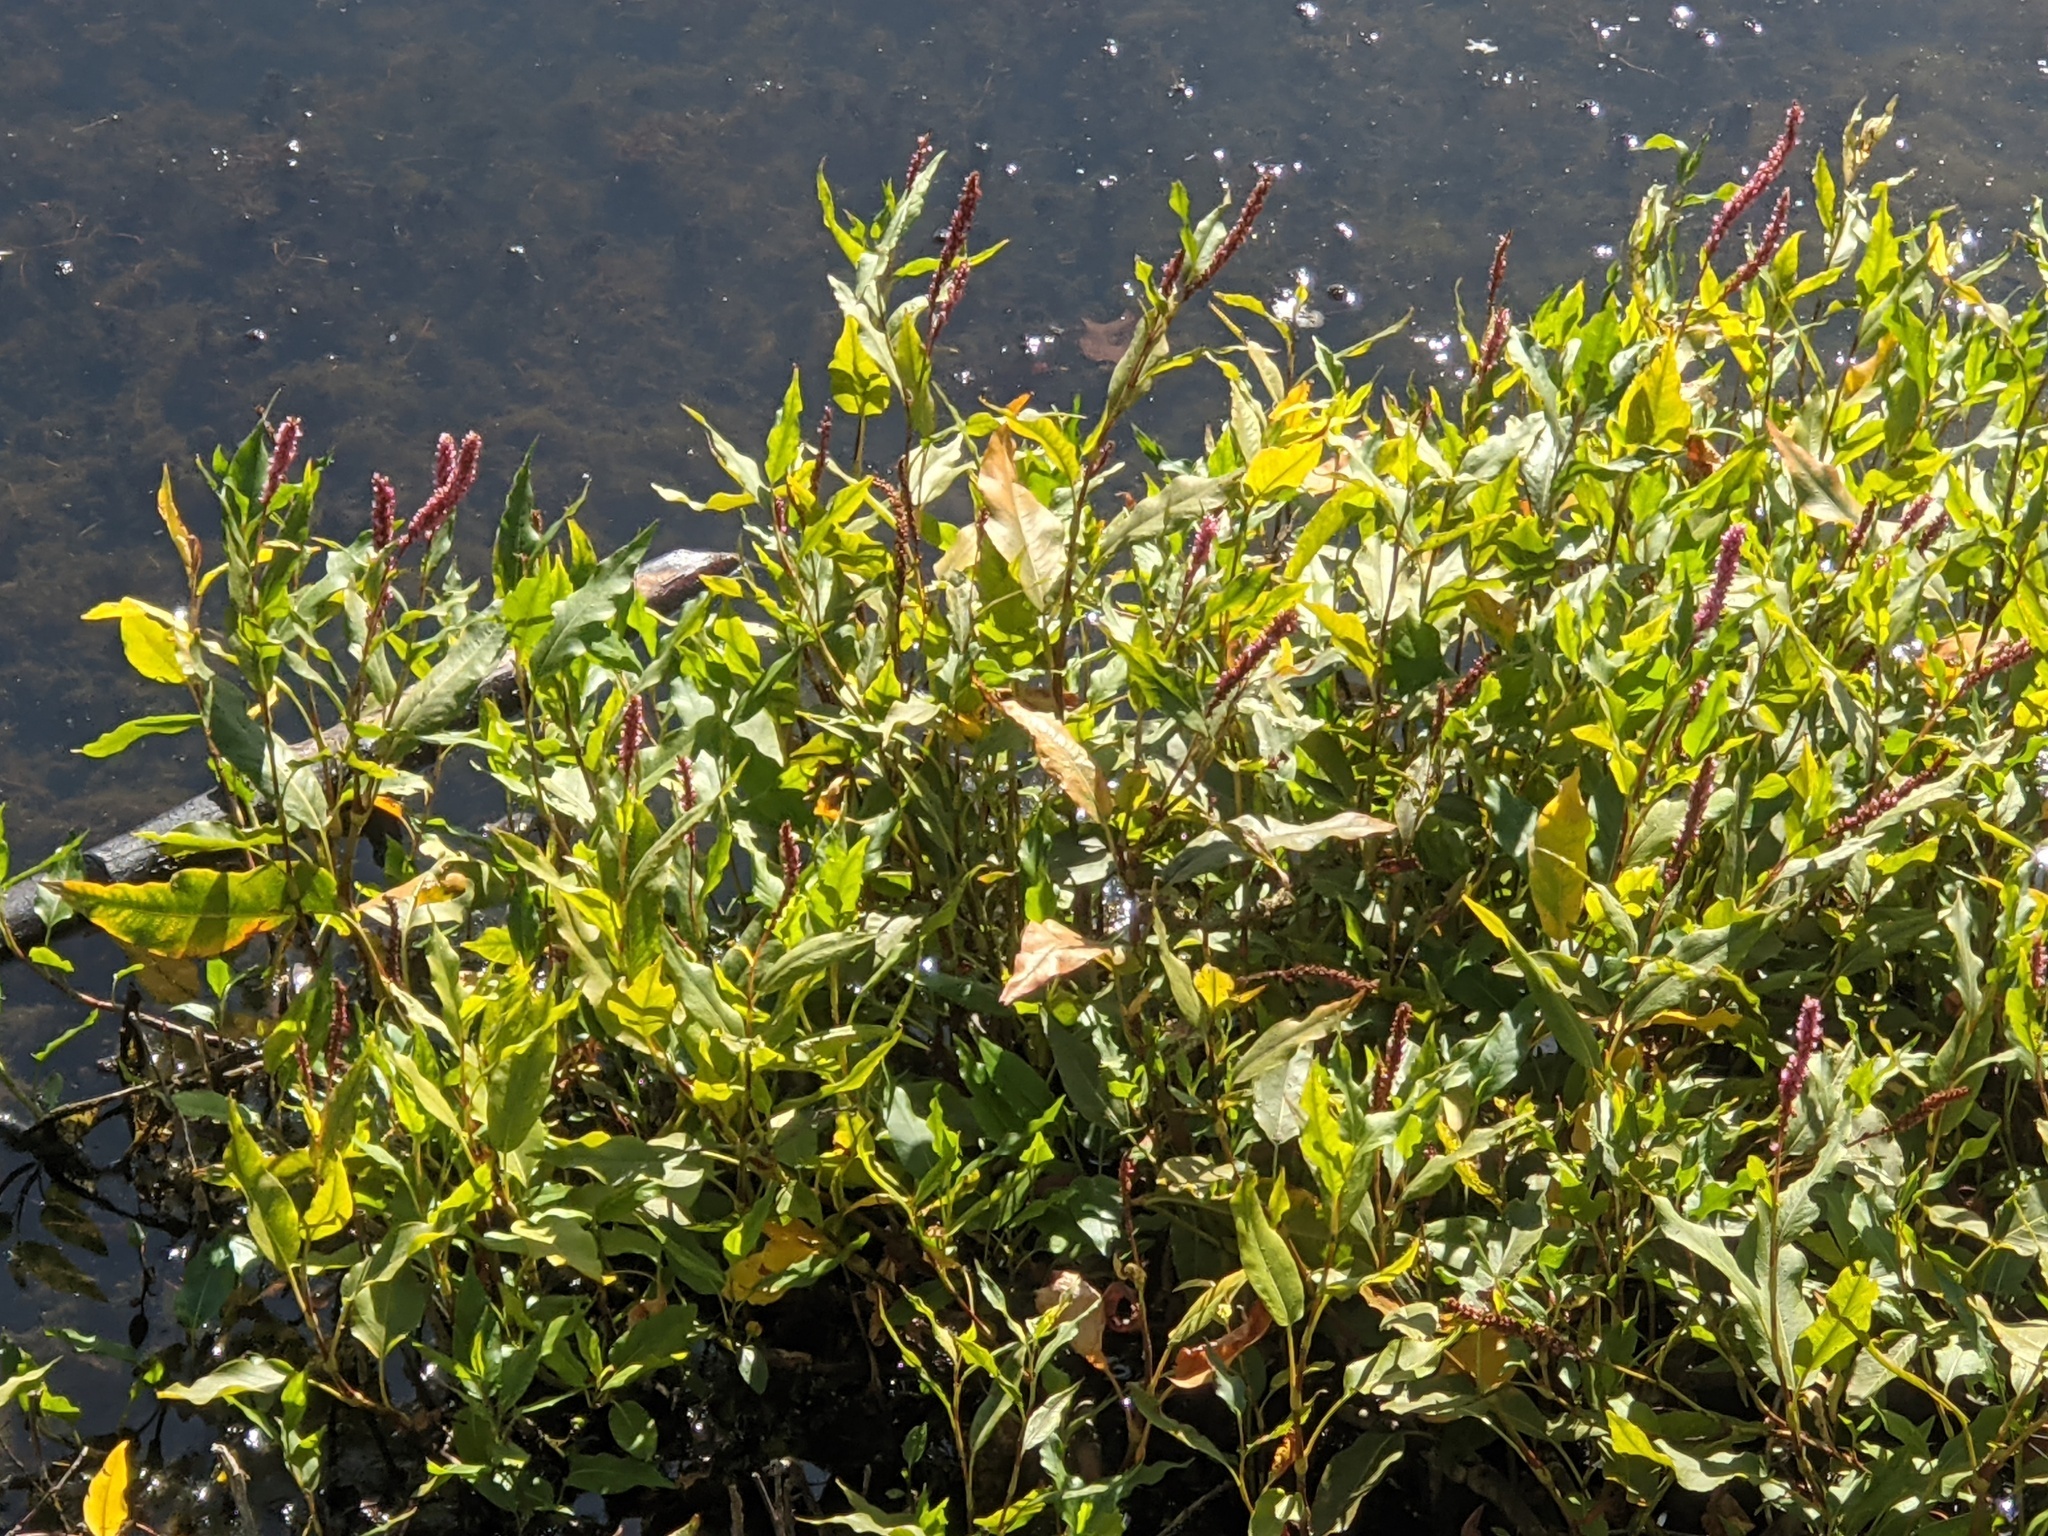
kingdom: Plantae
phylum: Tracheophyta
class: Magnoliopsida
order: Caryophyllales
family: Polygonaceae
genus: Persicaria
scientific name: Persicaria amphibia
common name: Amphibious bistort
